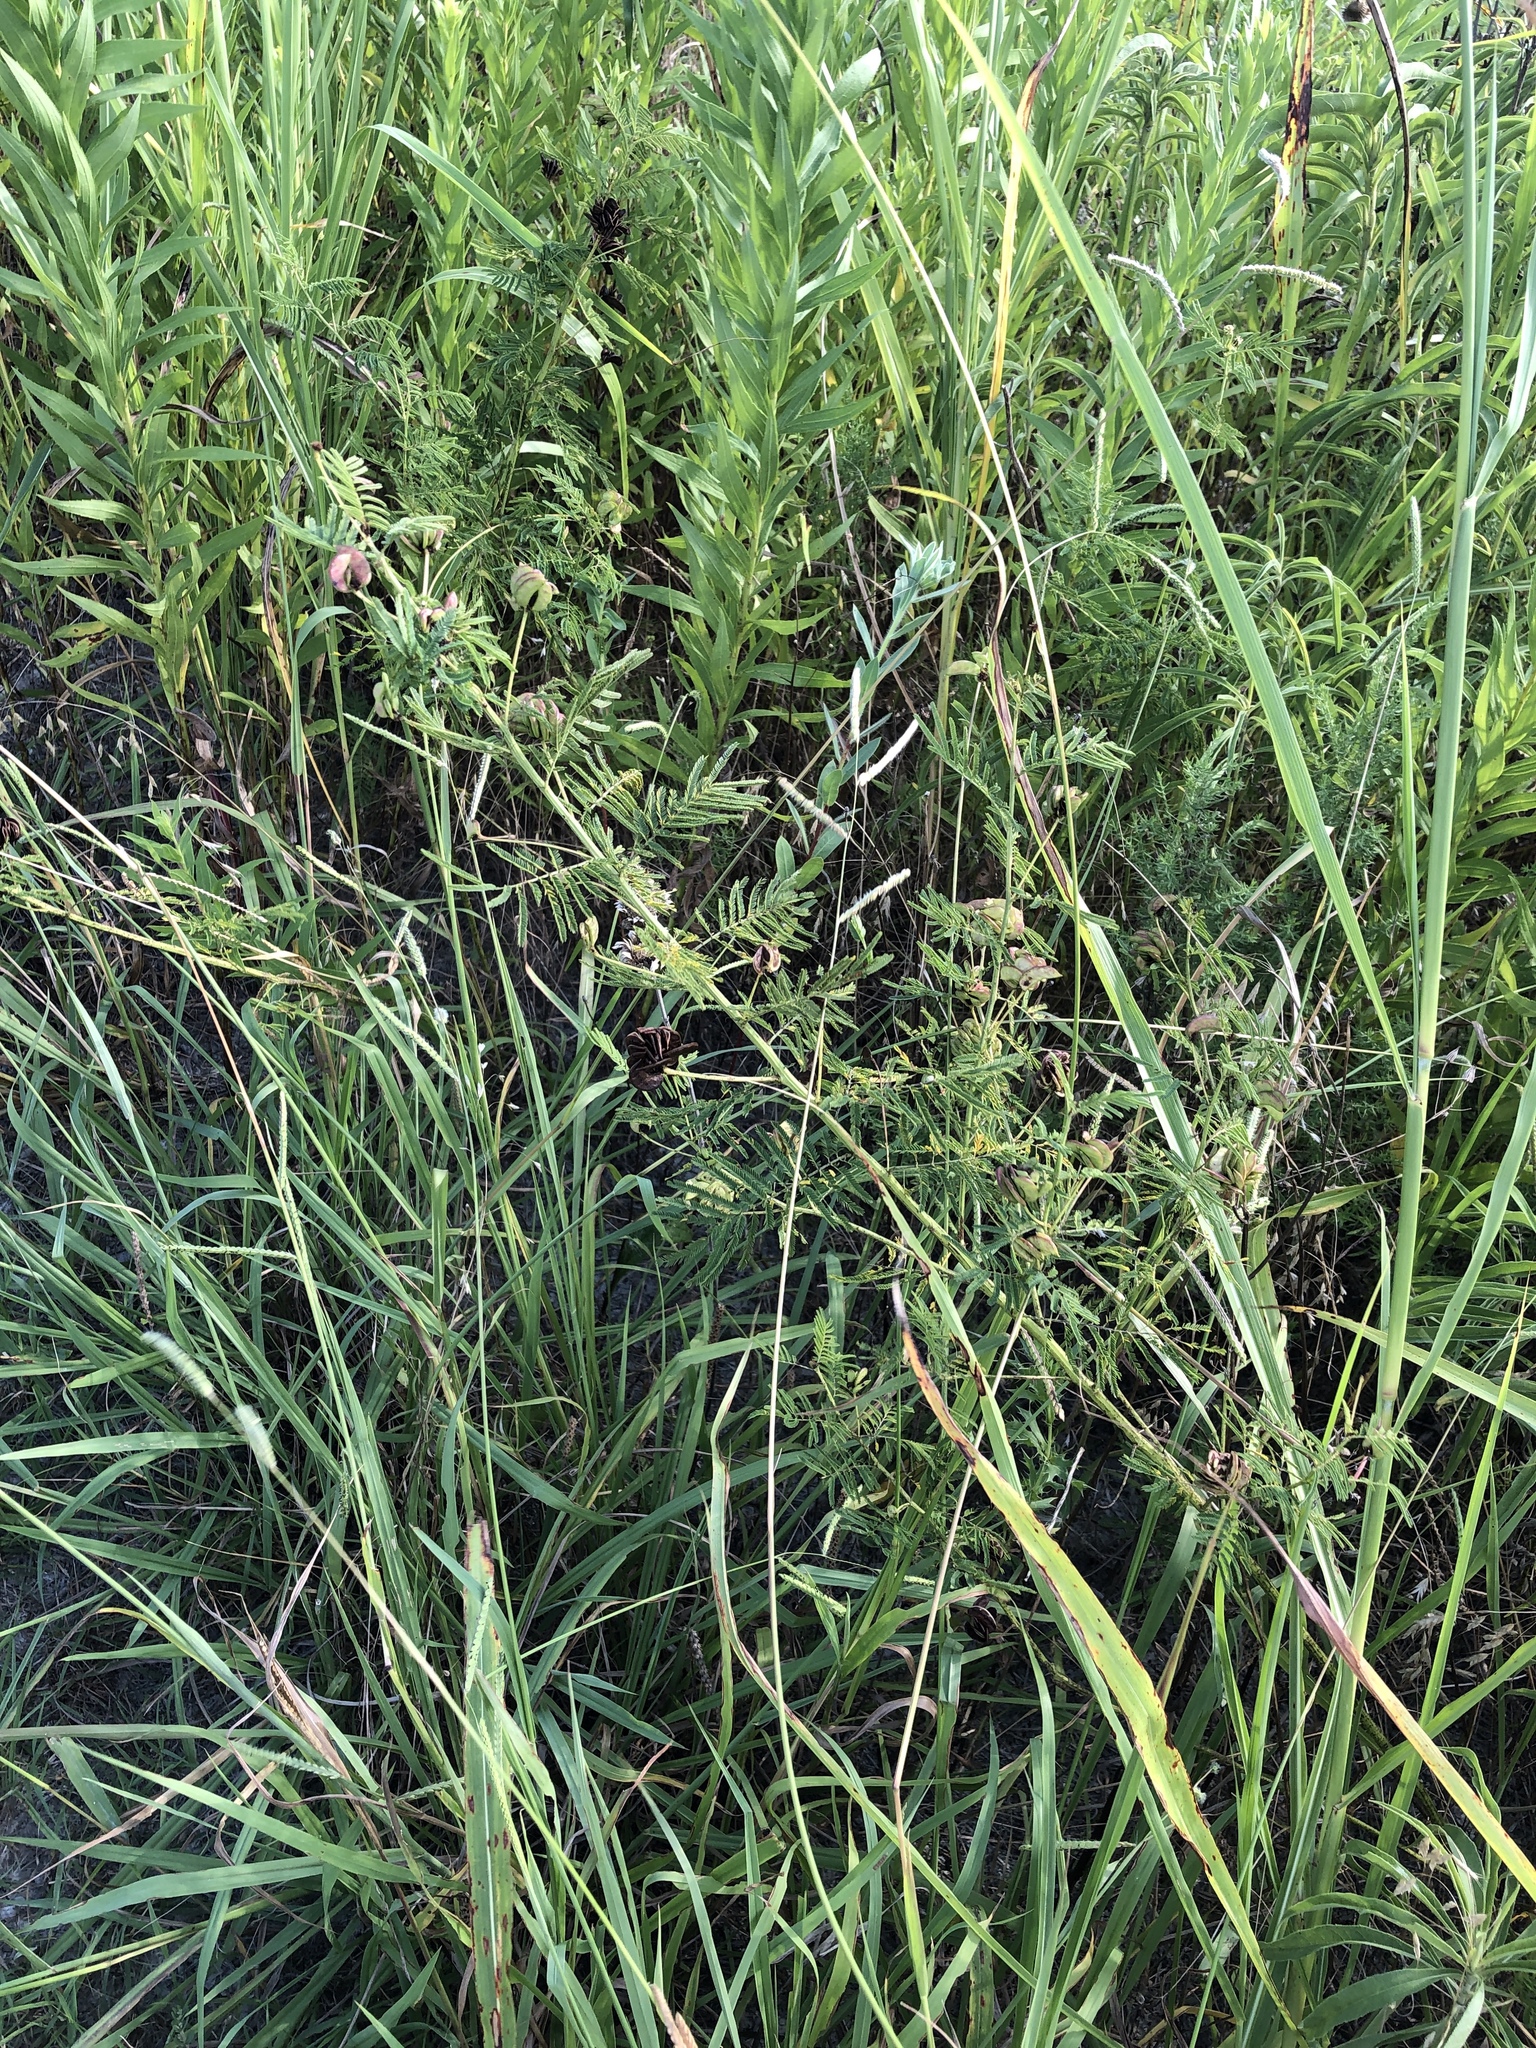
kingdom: Plantae
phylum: Tracheophyta
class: Magnoliopsida
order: Fabales
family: Fabaceae
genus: Desmanthus
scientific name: Desmanthus illinoensis
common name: Illinois bundle-flower
